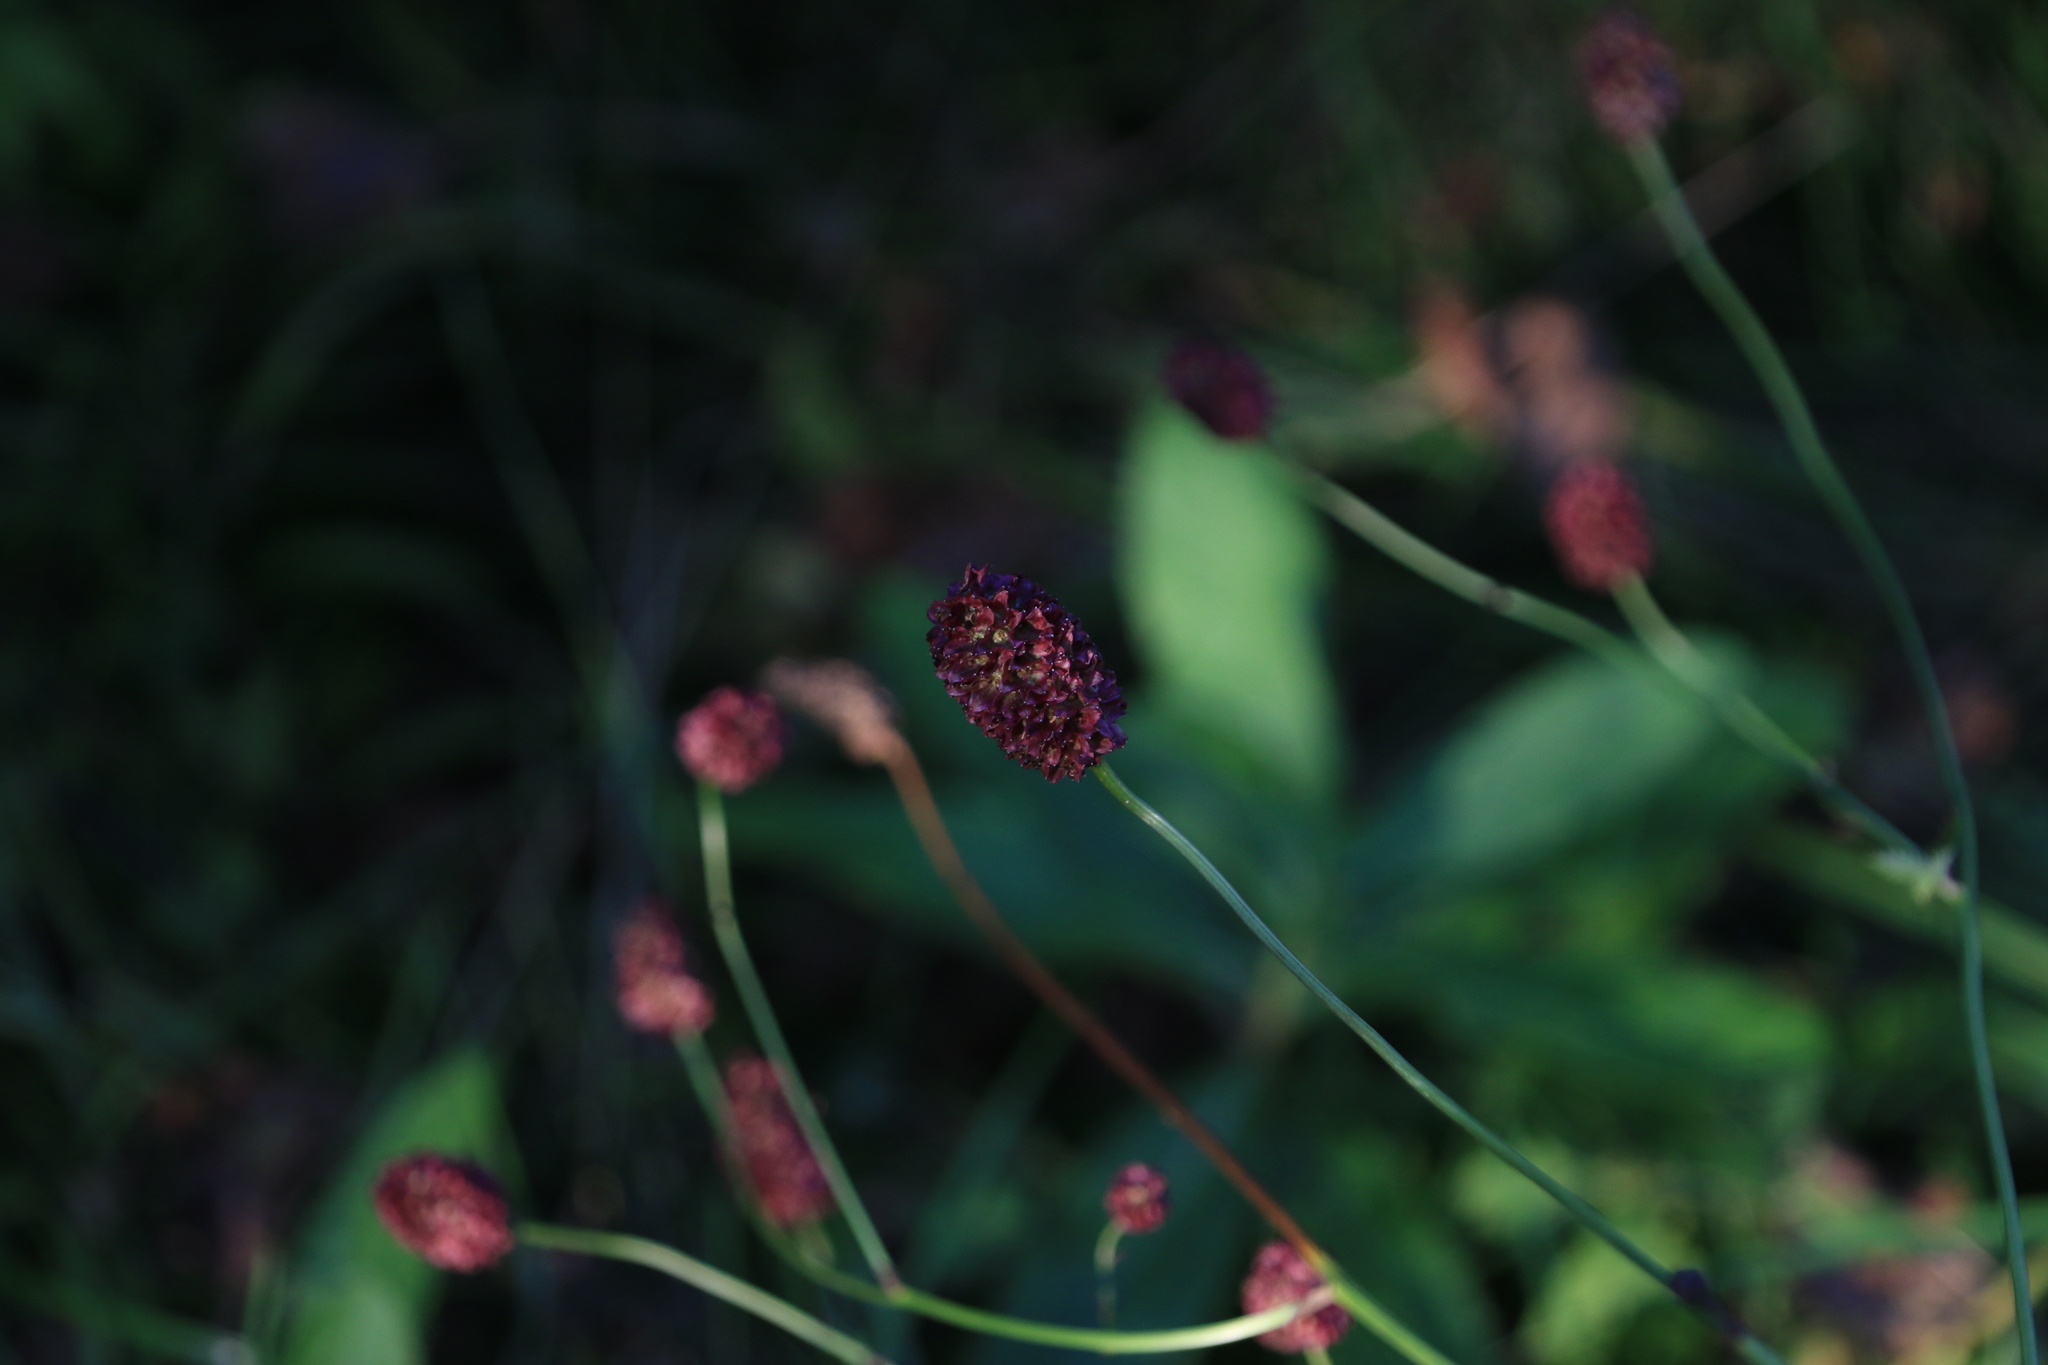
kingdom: Plantae
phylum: Tracheophyta
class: Magnoliopsida
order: Rosales
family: Rosaceae
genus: Sanguisorba
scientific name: Sanguisorba officinalis
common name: Great burnet
